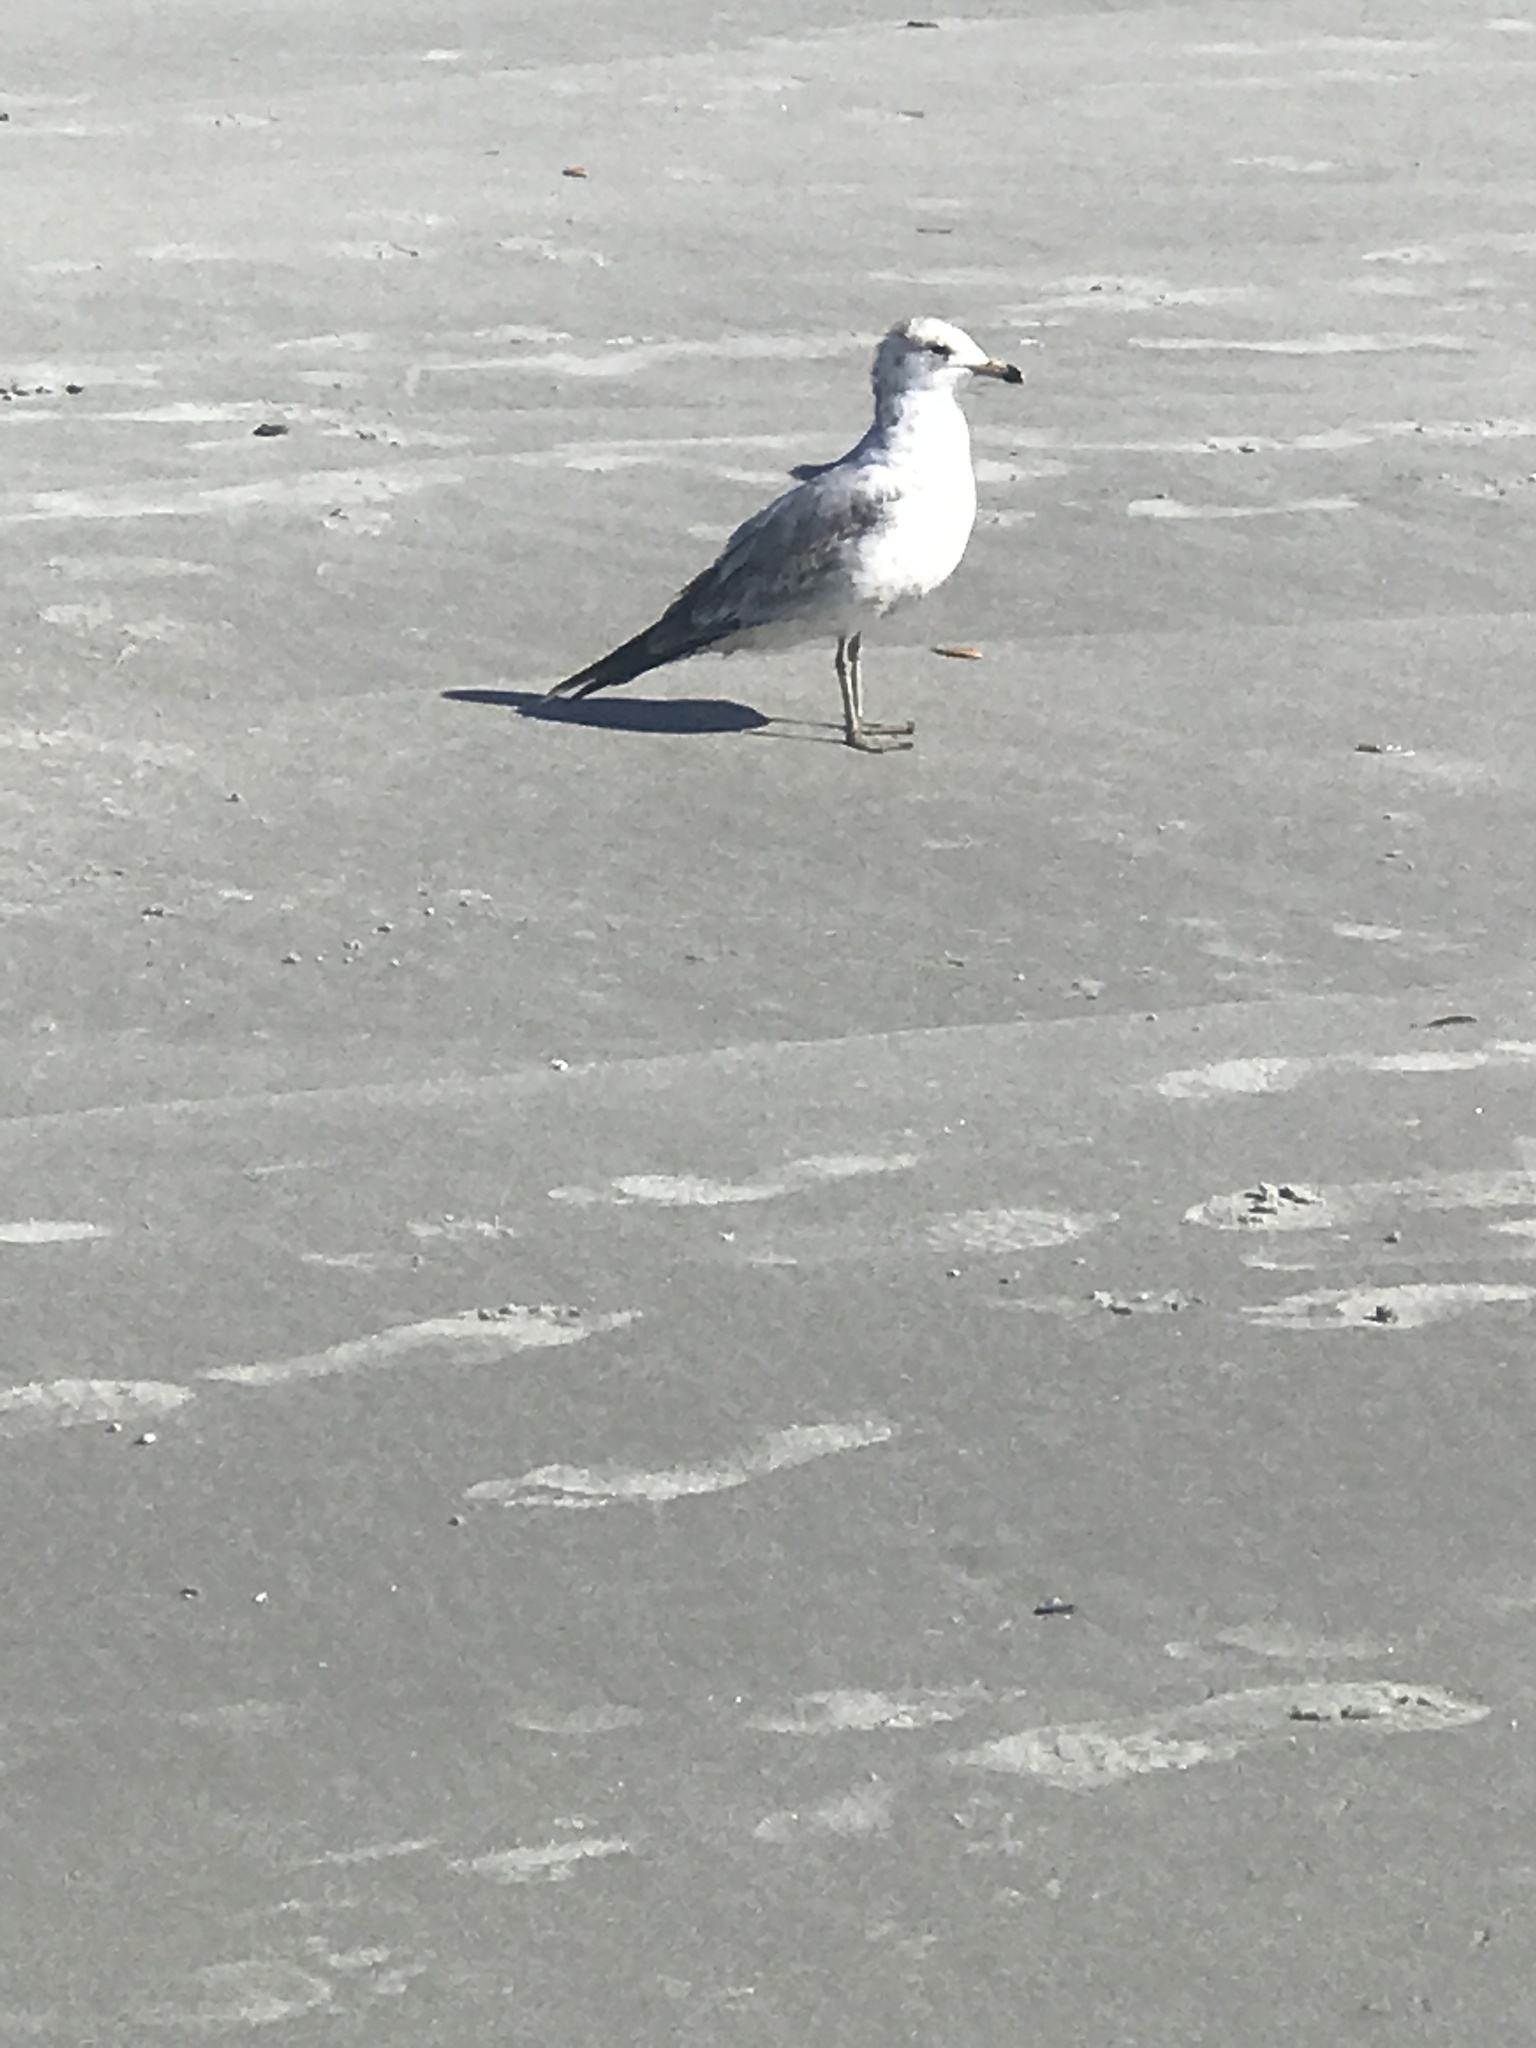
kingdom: Animalia
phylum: Chordata
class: Aves
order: Charadriiformes
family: Laridae
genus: Larus
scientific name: Larus delawarensis
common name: Ring-billed gull
